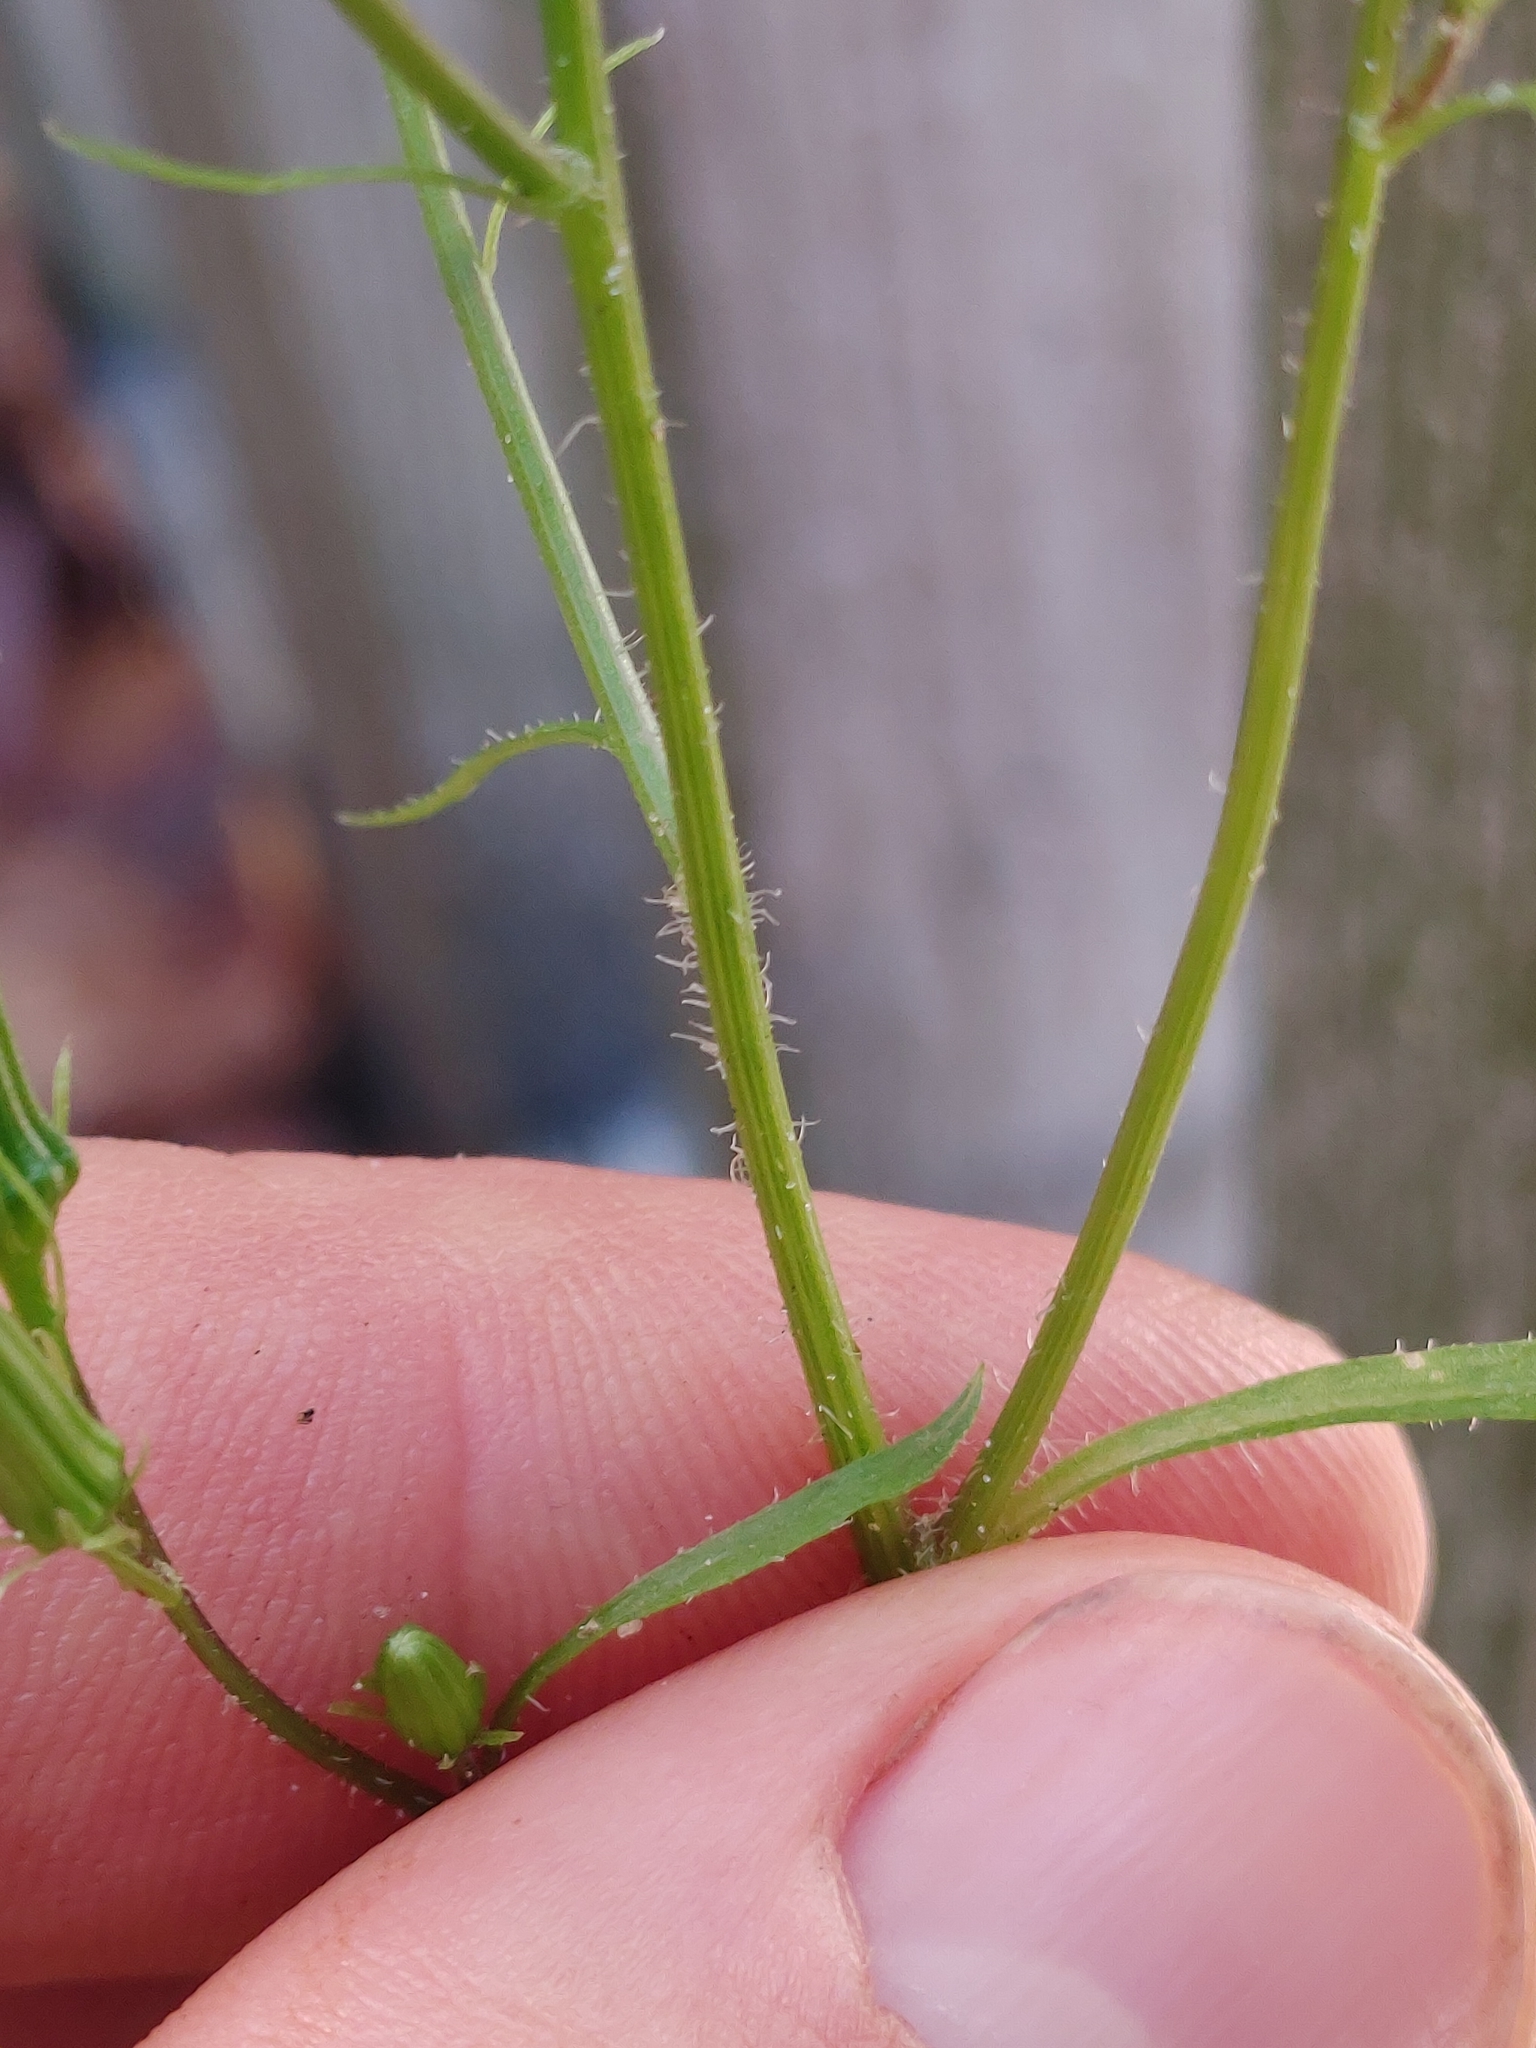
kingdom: Plantae
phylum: Tracheophyta
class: Magnoliopsida
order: Asterales
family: Asteraceae
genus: Erechtites
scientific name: Erechtites hieraciifolius
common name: American burnweed
